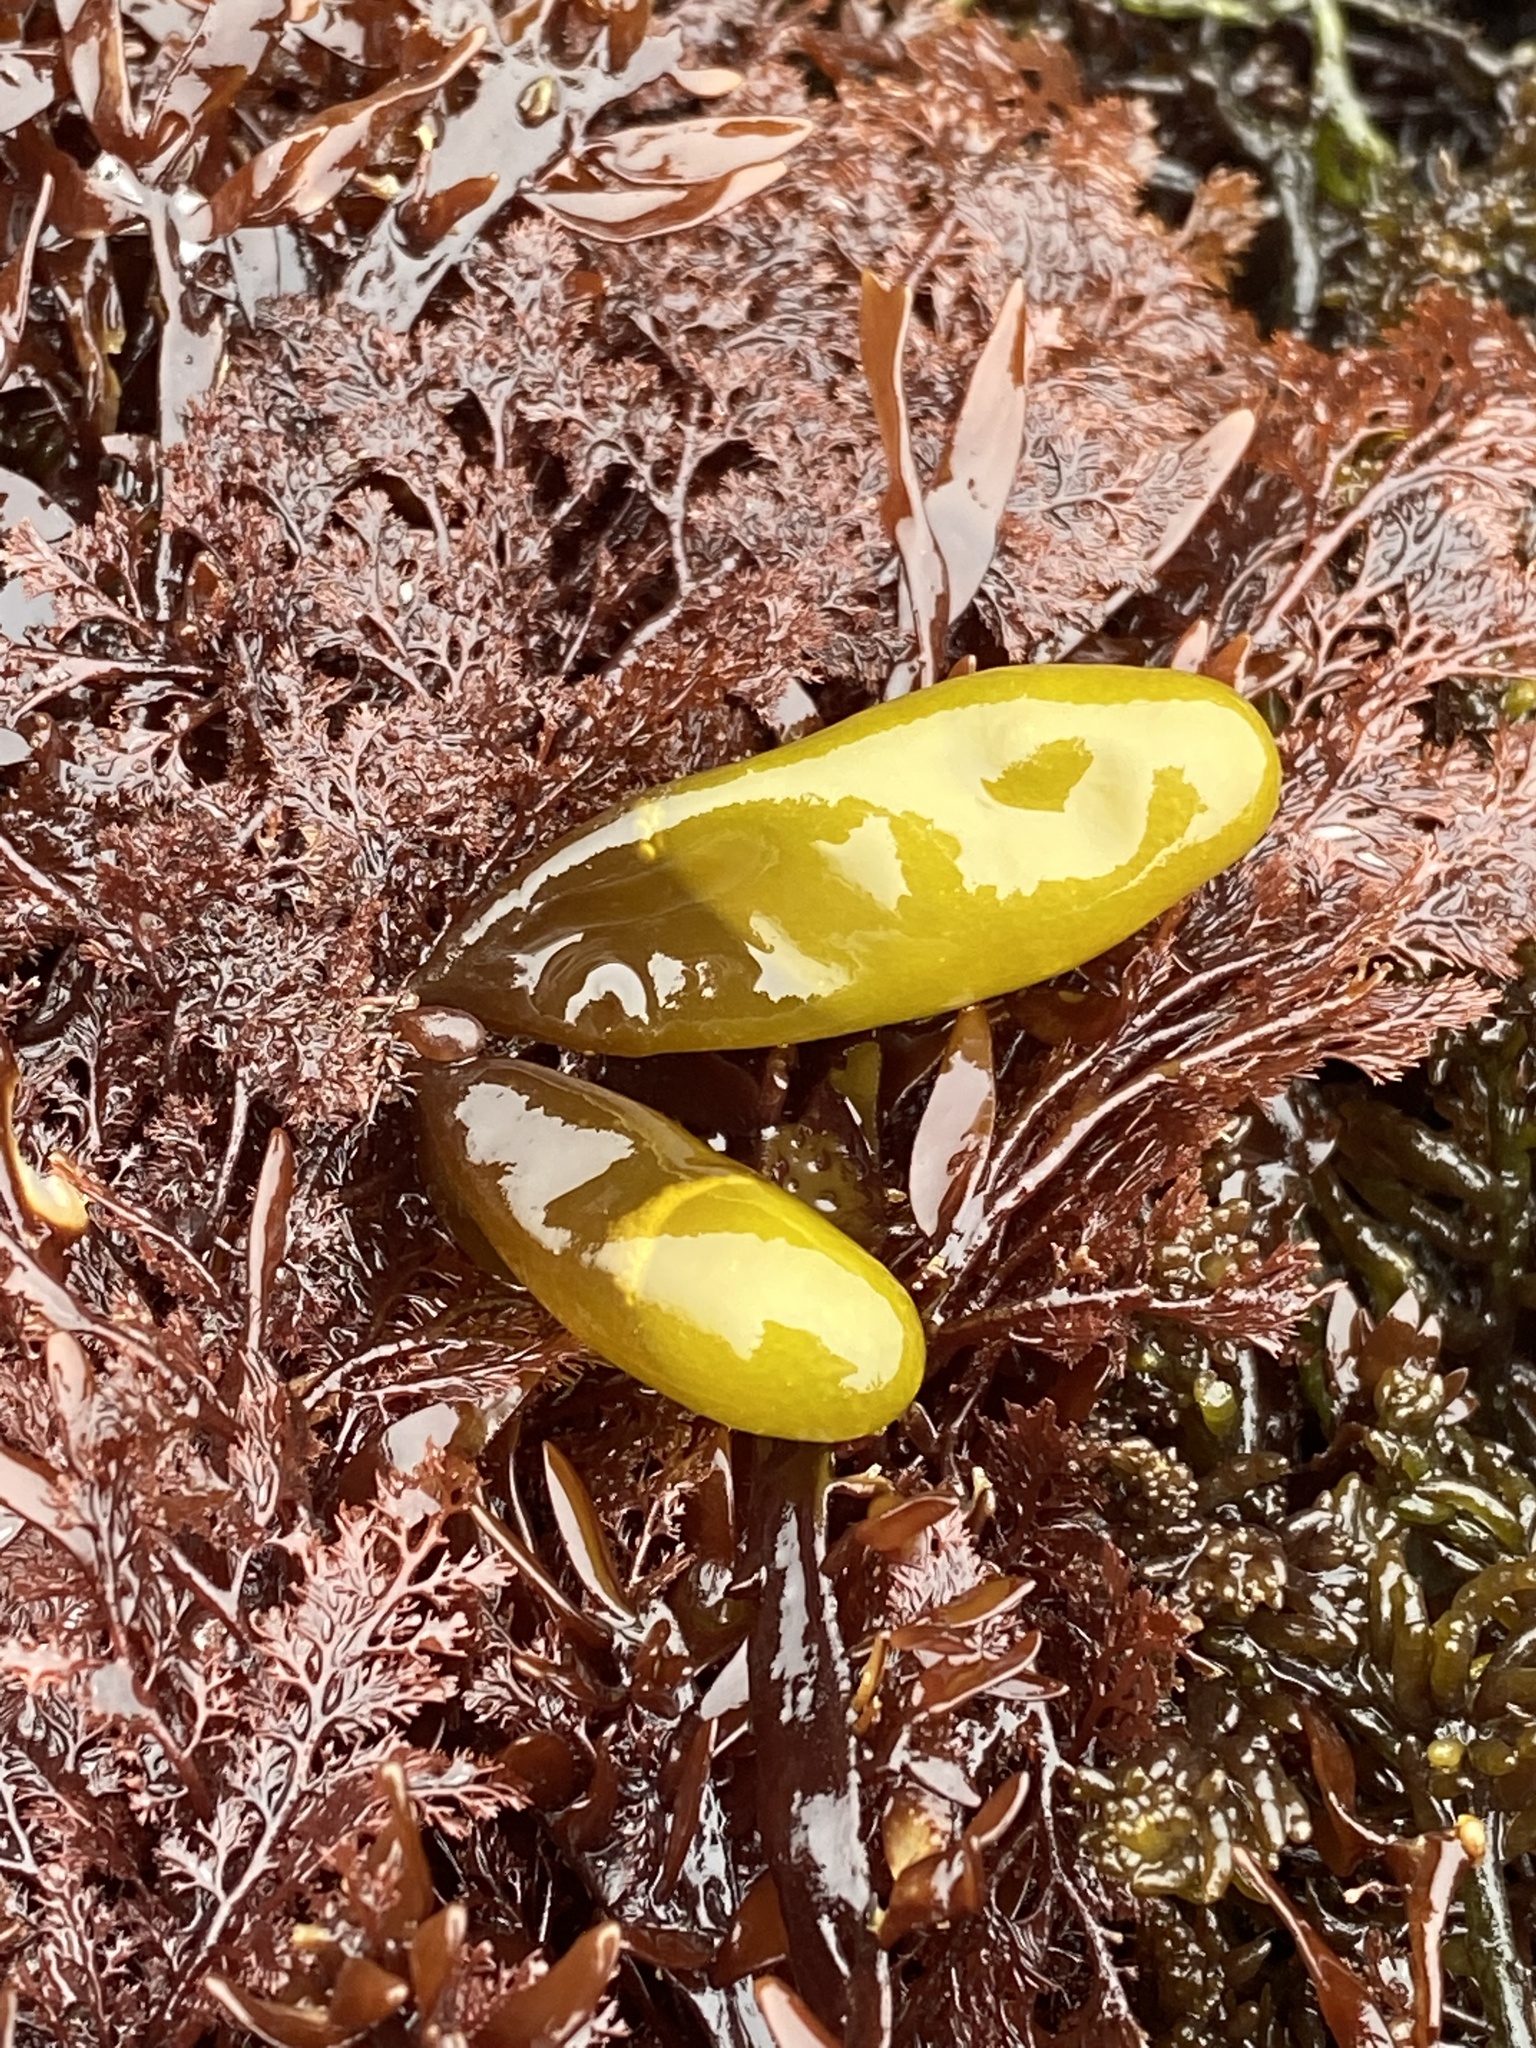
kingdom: Plantae
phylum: Rhodophyta
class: Florideophyceae
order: Palmariales
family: Palmariaceae
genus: Halosaccion
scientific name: Halosaccion glandiforme
